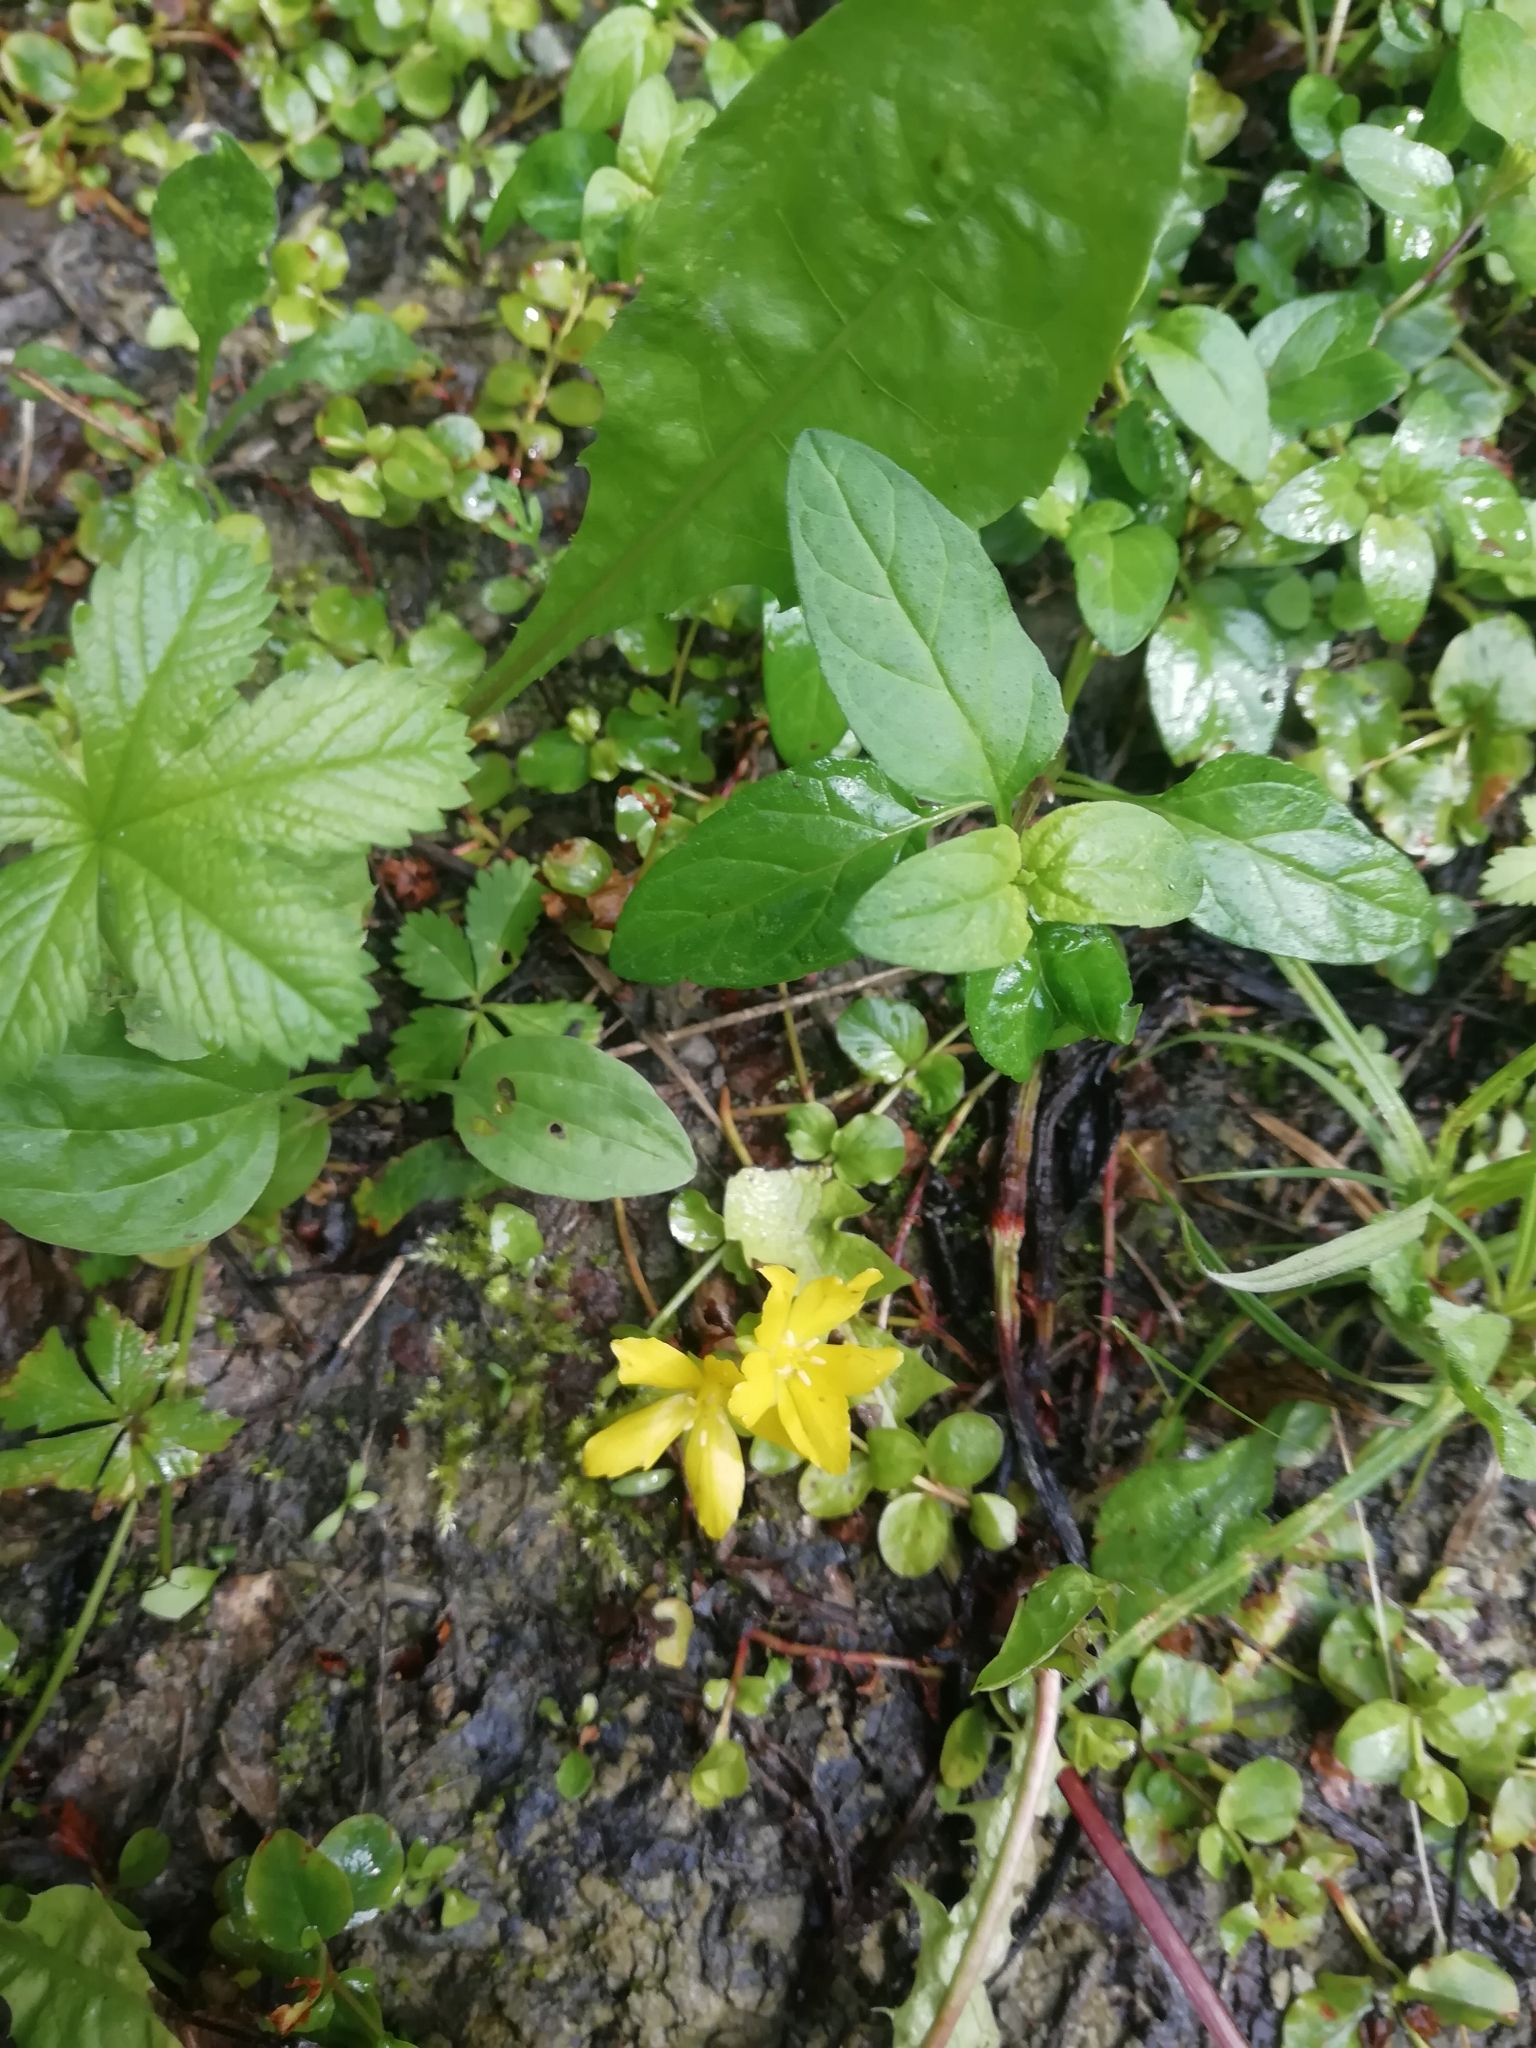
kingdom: Plantae
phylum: Tracheophyta
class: Magnoliopsida
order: Ericales
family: Primulaceae
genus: Lysimachia
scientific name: Lysimachia nummularia
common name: Moneywort
